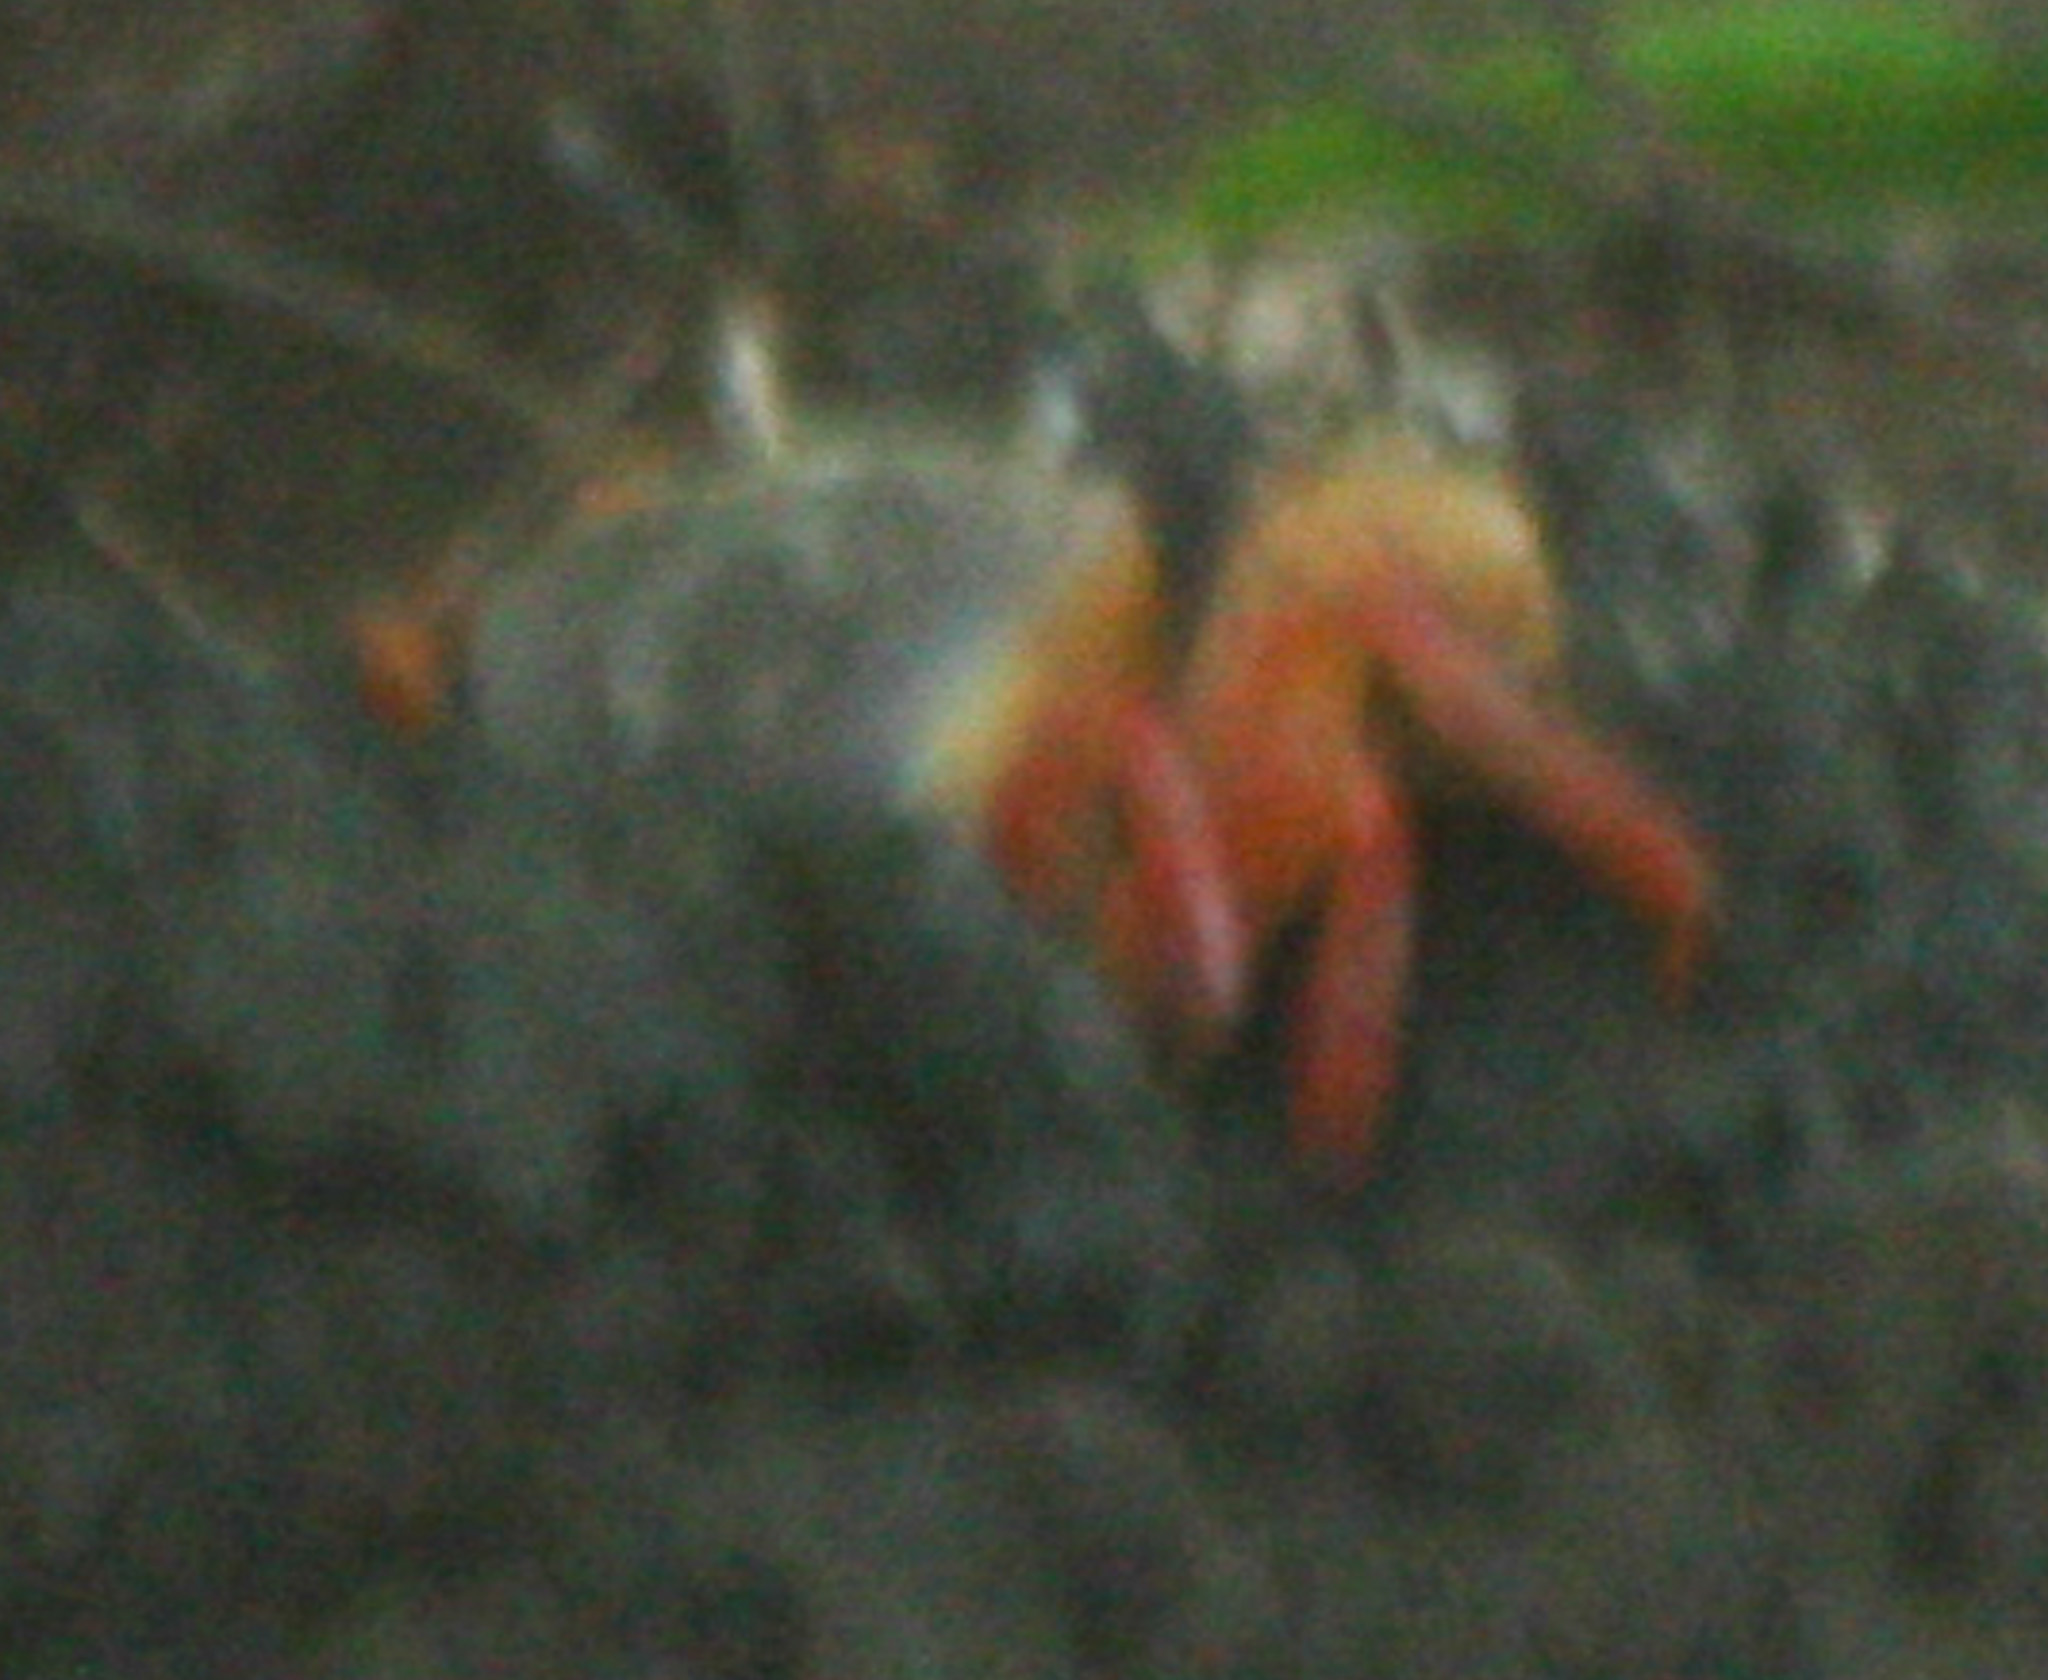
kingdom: Animalia
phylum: Arthropoda
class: Malacostraca
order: Decapoda
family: Gecarcinidae
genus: Cardisoma
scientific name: Cardisoma crassum
